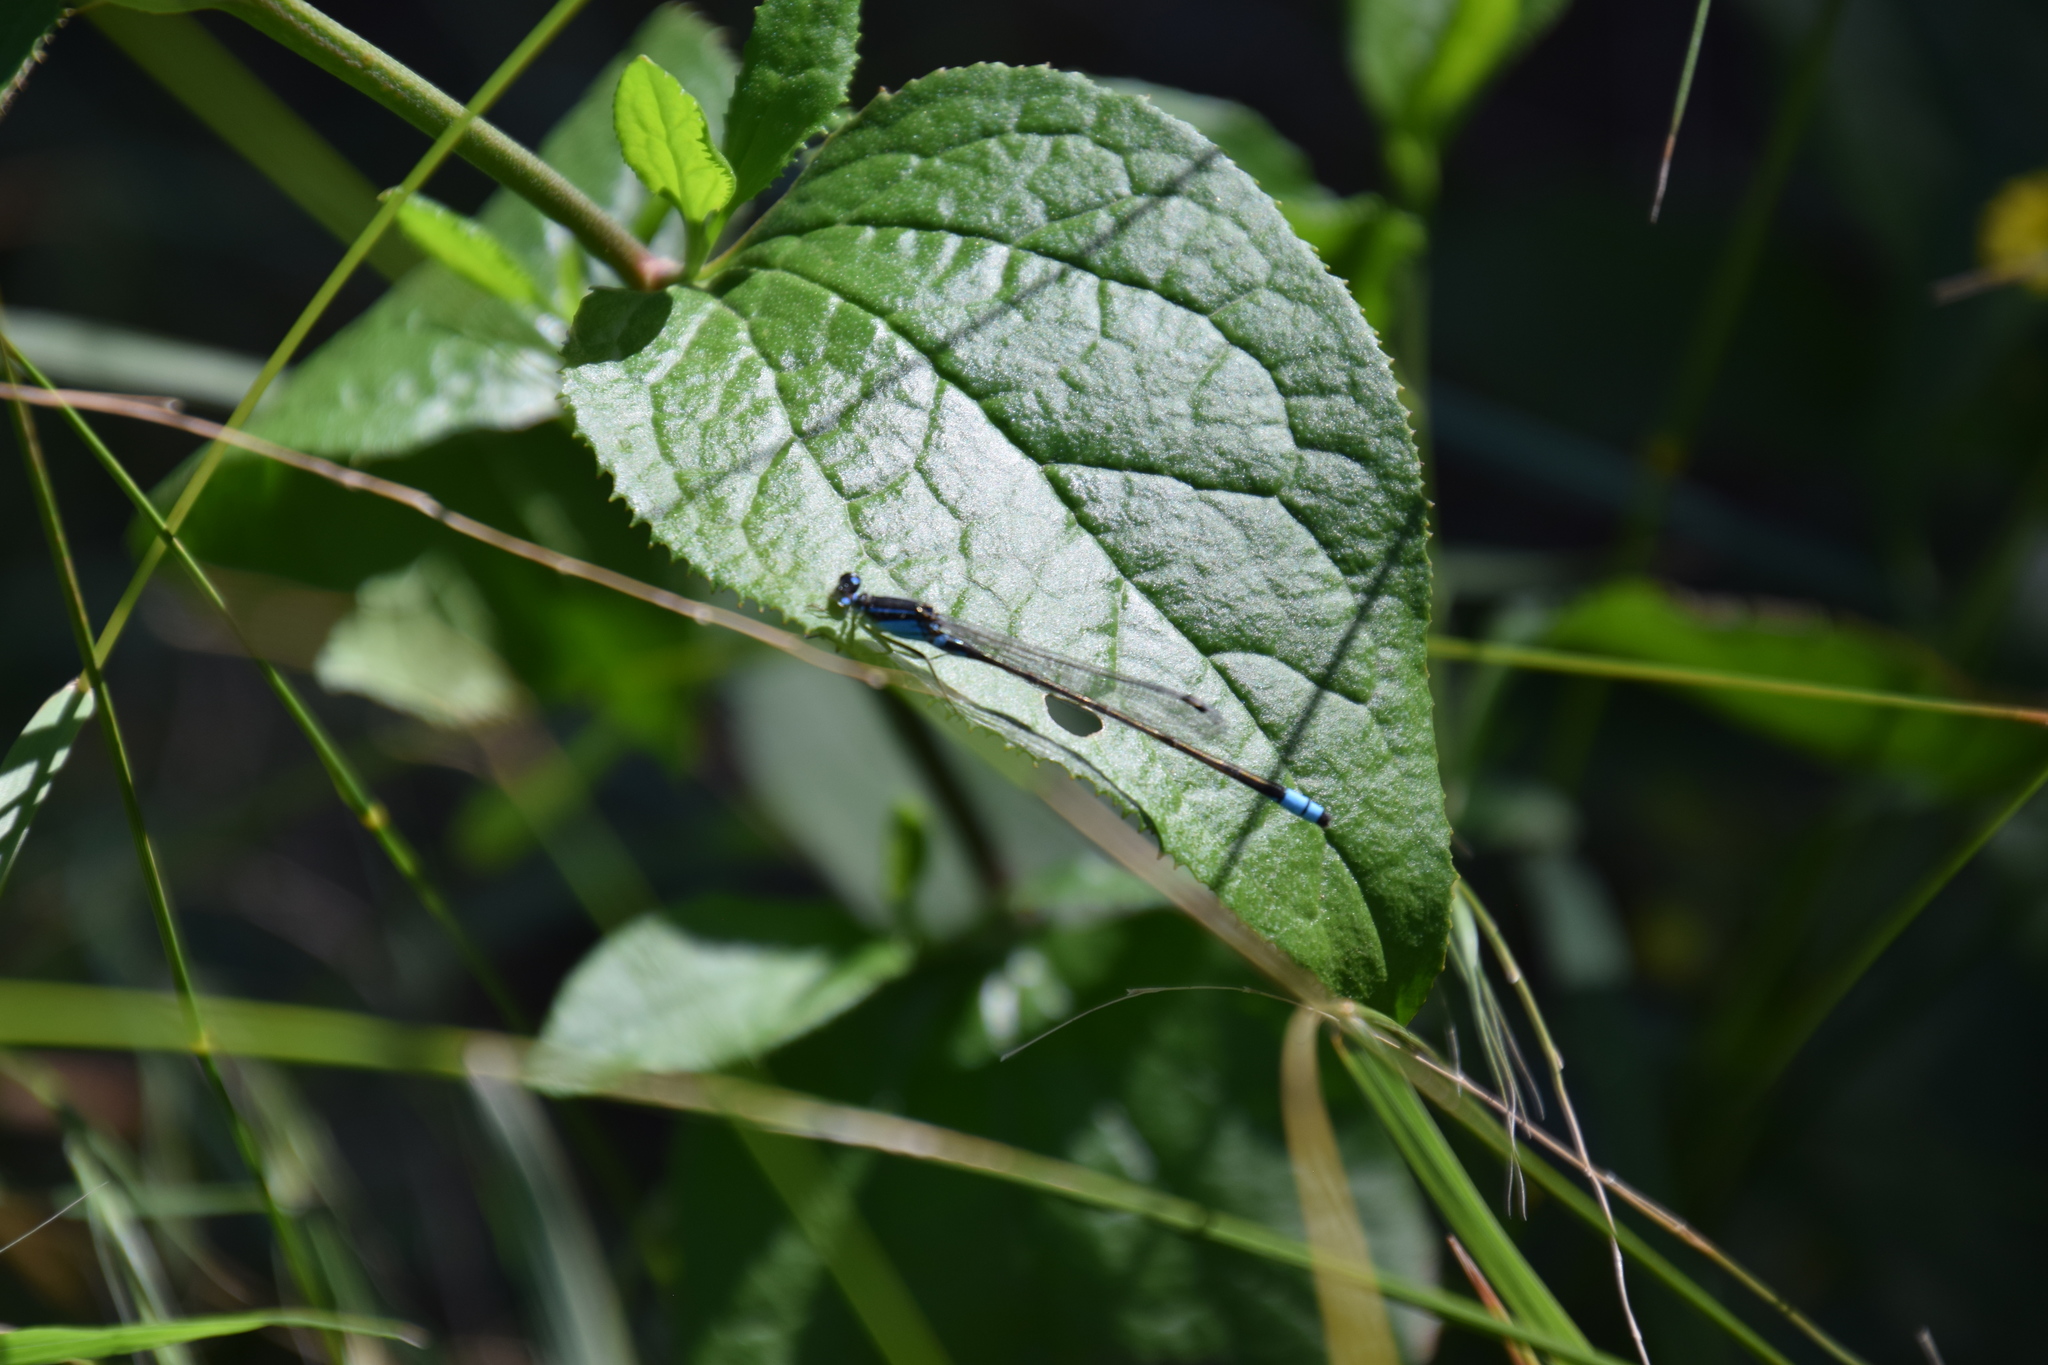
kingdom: Animalia
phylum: Arthropoda
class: Insecta
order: Odonata
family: Coenagrionidae
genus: Ischnura
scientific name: Ischnura heterosticta
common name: Common bluetail
